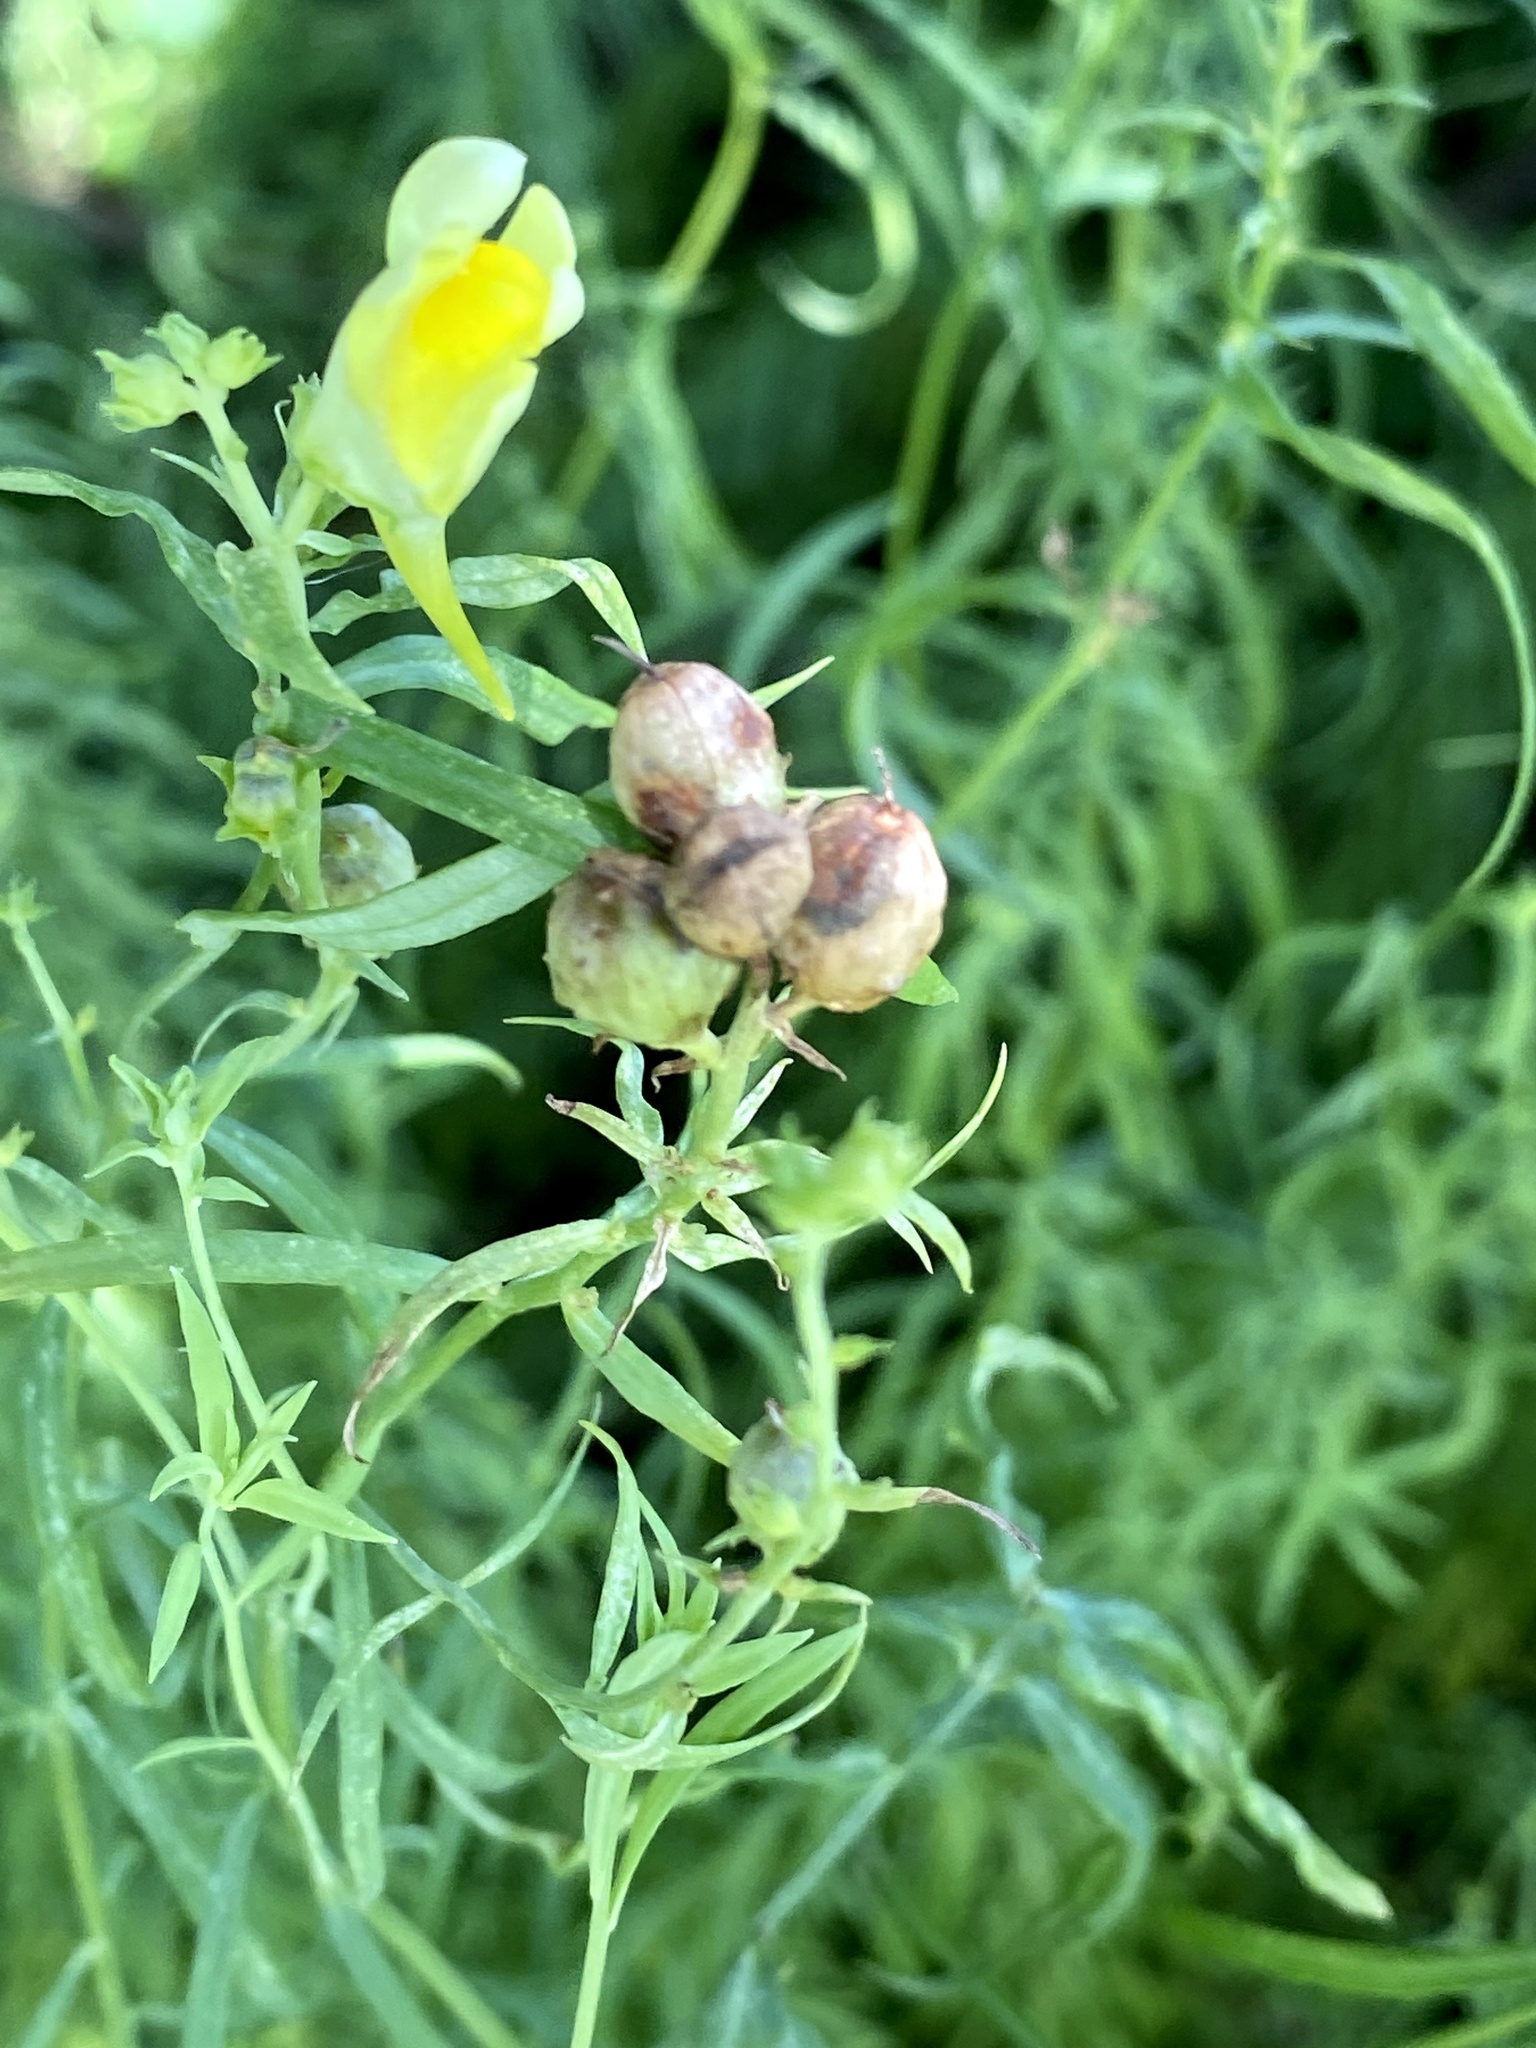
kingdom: Plantae
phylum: Tracheophyta
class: Magnoliopsida
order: Lamiales
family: Plantaginaceae
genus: Linaria
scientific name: Linaria vulgaris
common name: Butter and eggs
